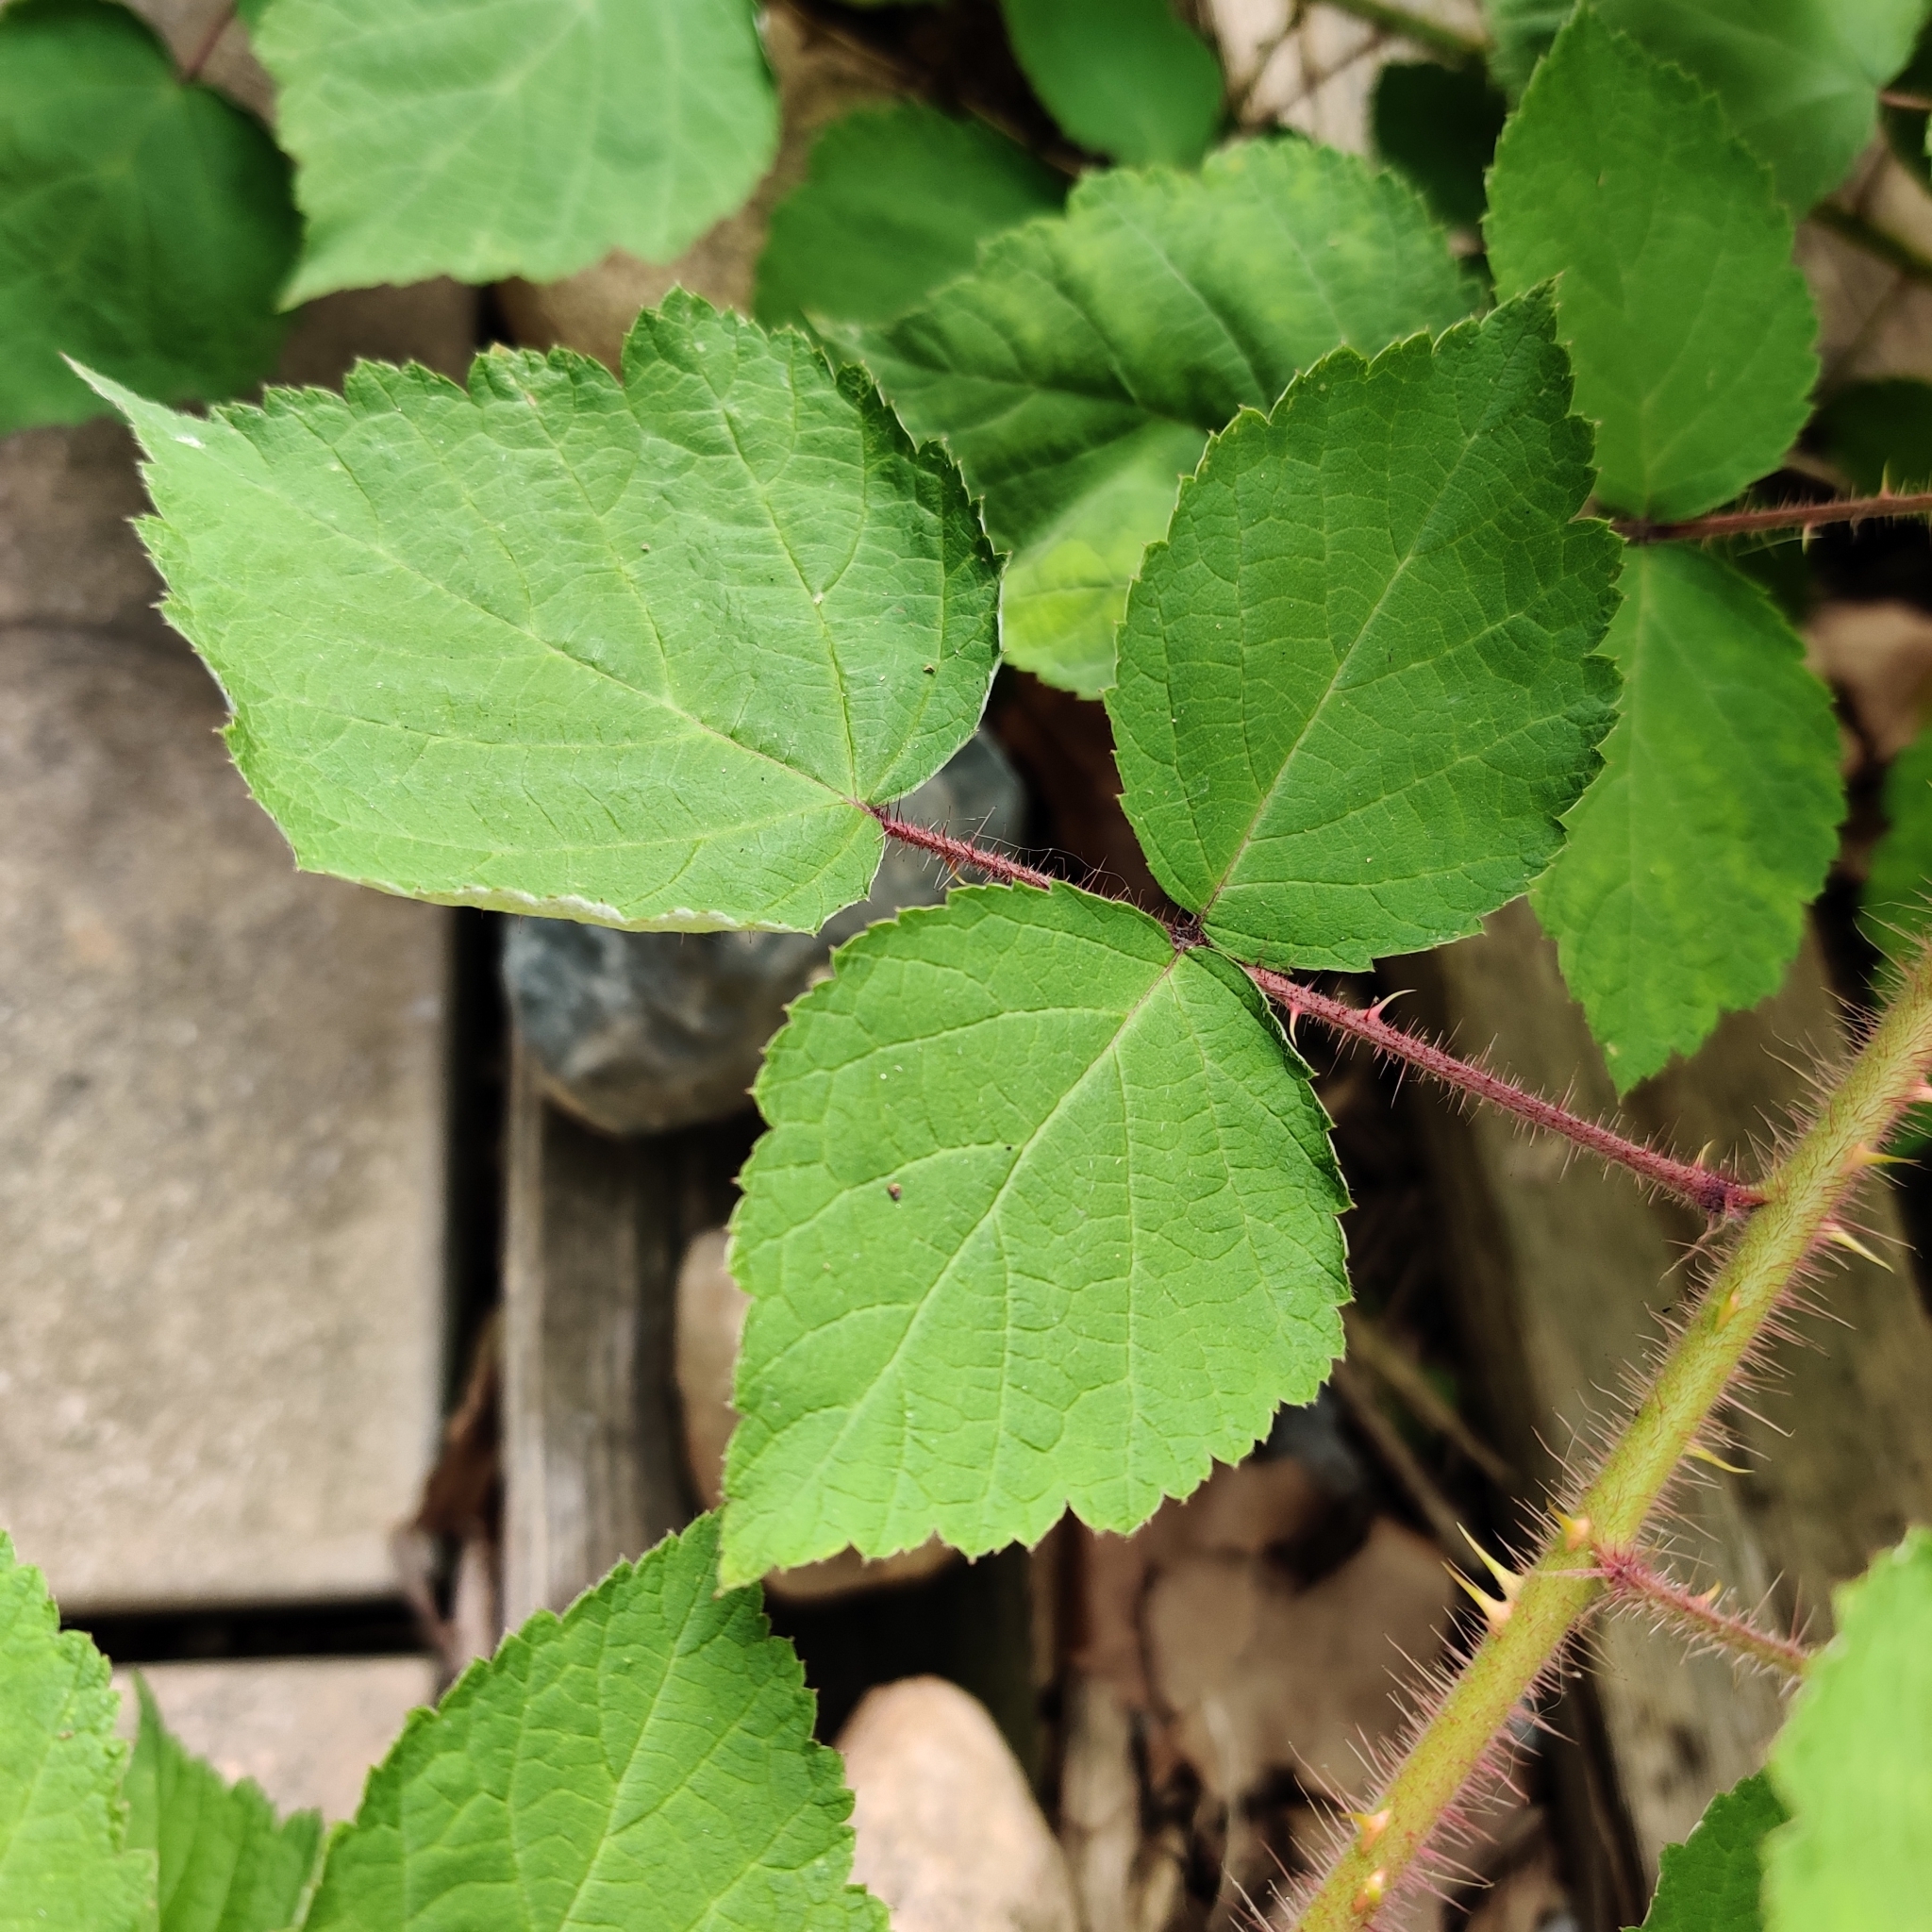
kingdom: Plantae
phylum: Tracheophyta
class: Magnoliopsida
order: Rosales
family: Rosaceae
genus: Rubus
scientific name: Rubus phoenicolasius
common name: Japanese wineberry
